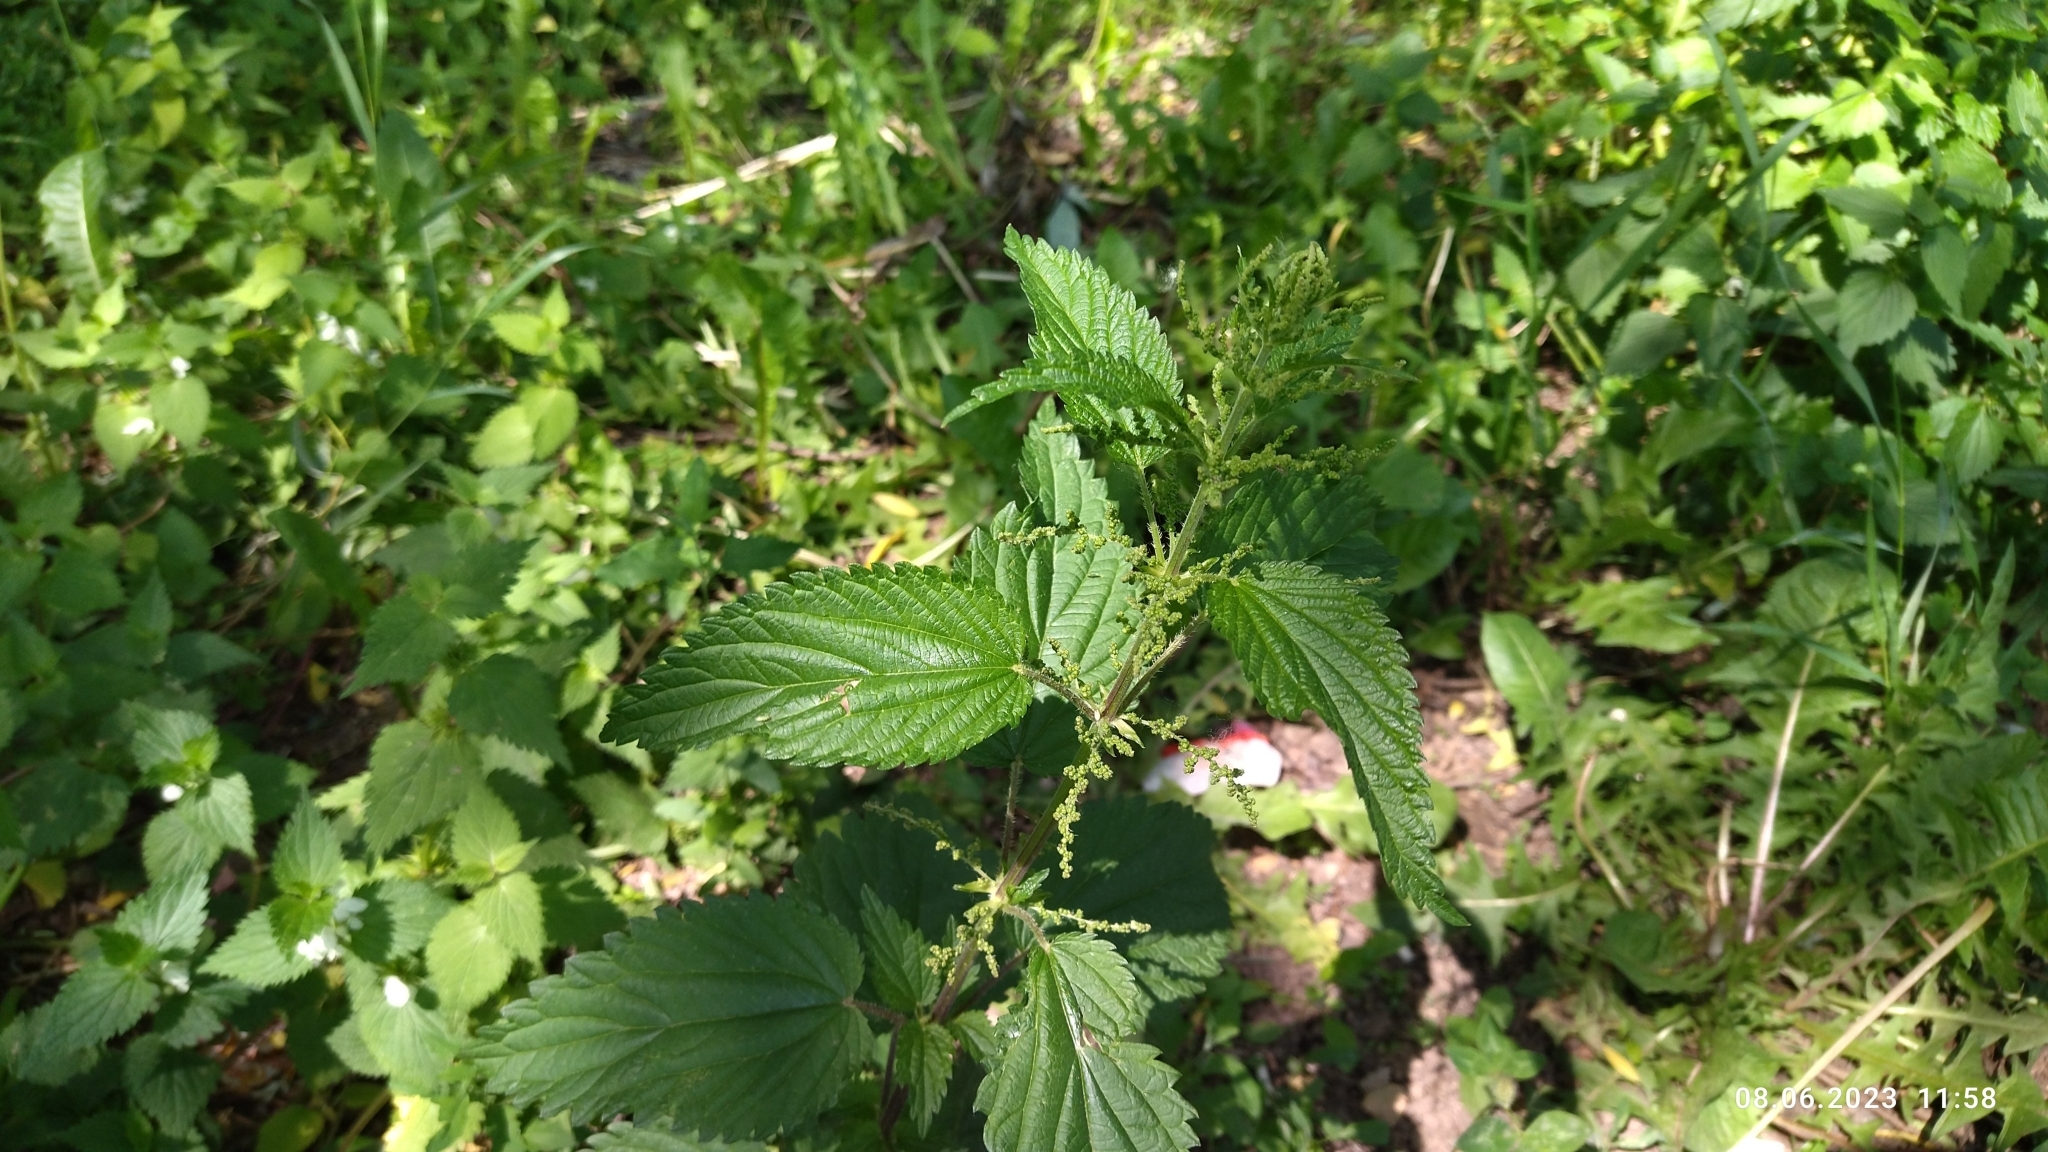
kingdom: Plantae
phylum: Tracheophyta
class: Magnoliopsida
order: Rosales
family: Urticaceae
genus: Urtica
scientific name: Urtica dioica
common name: Common nettle
